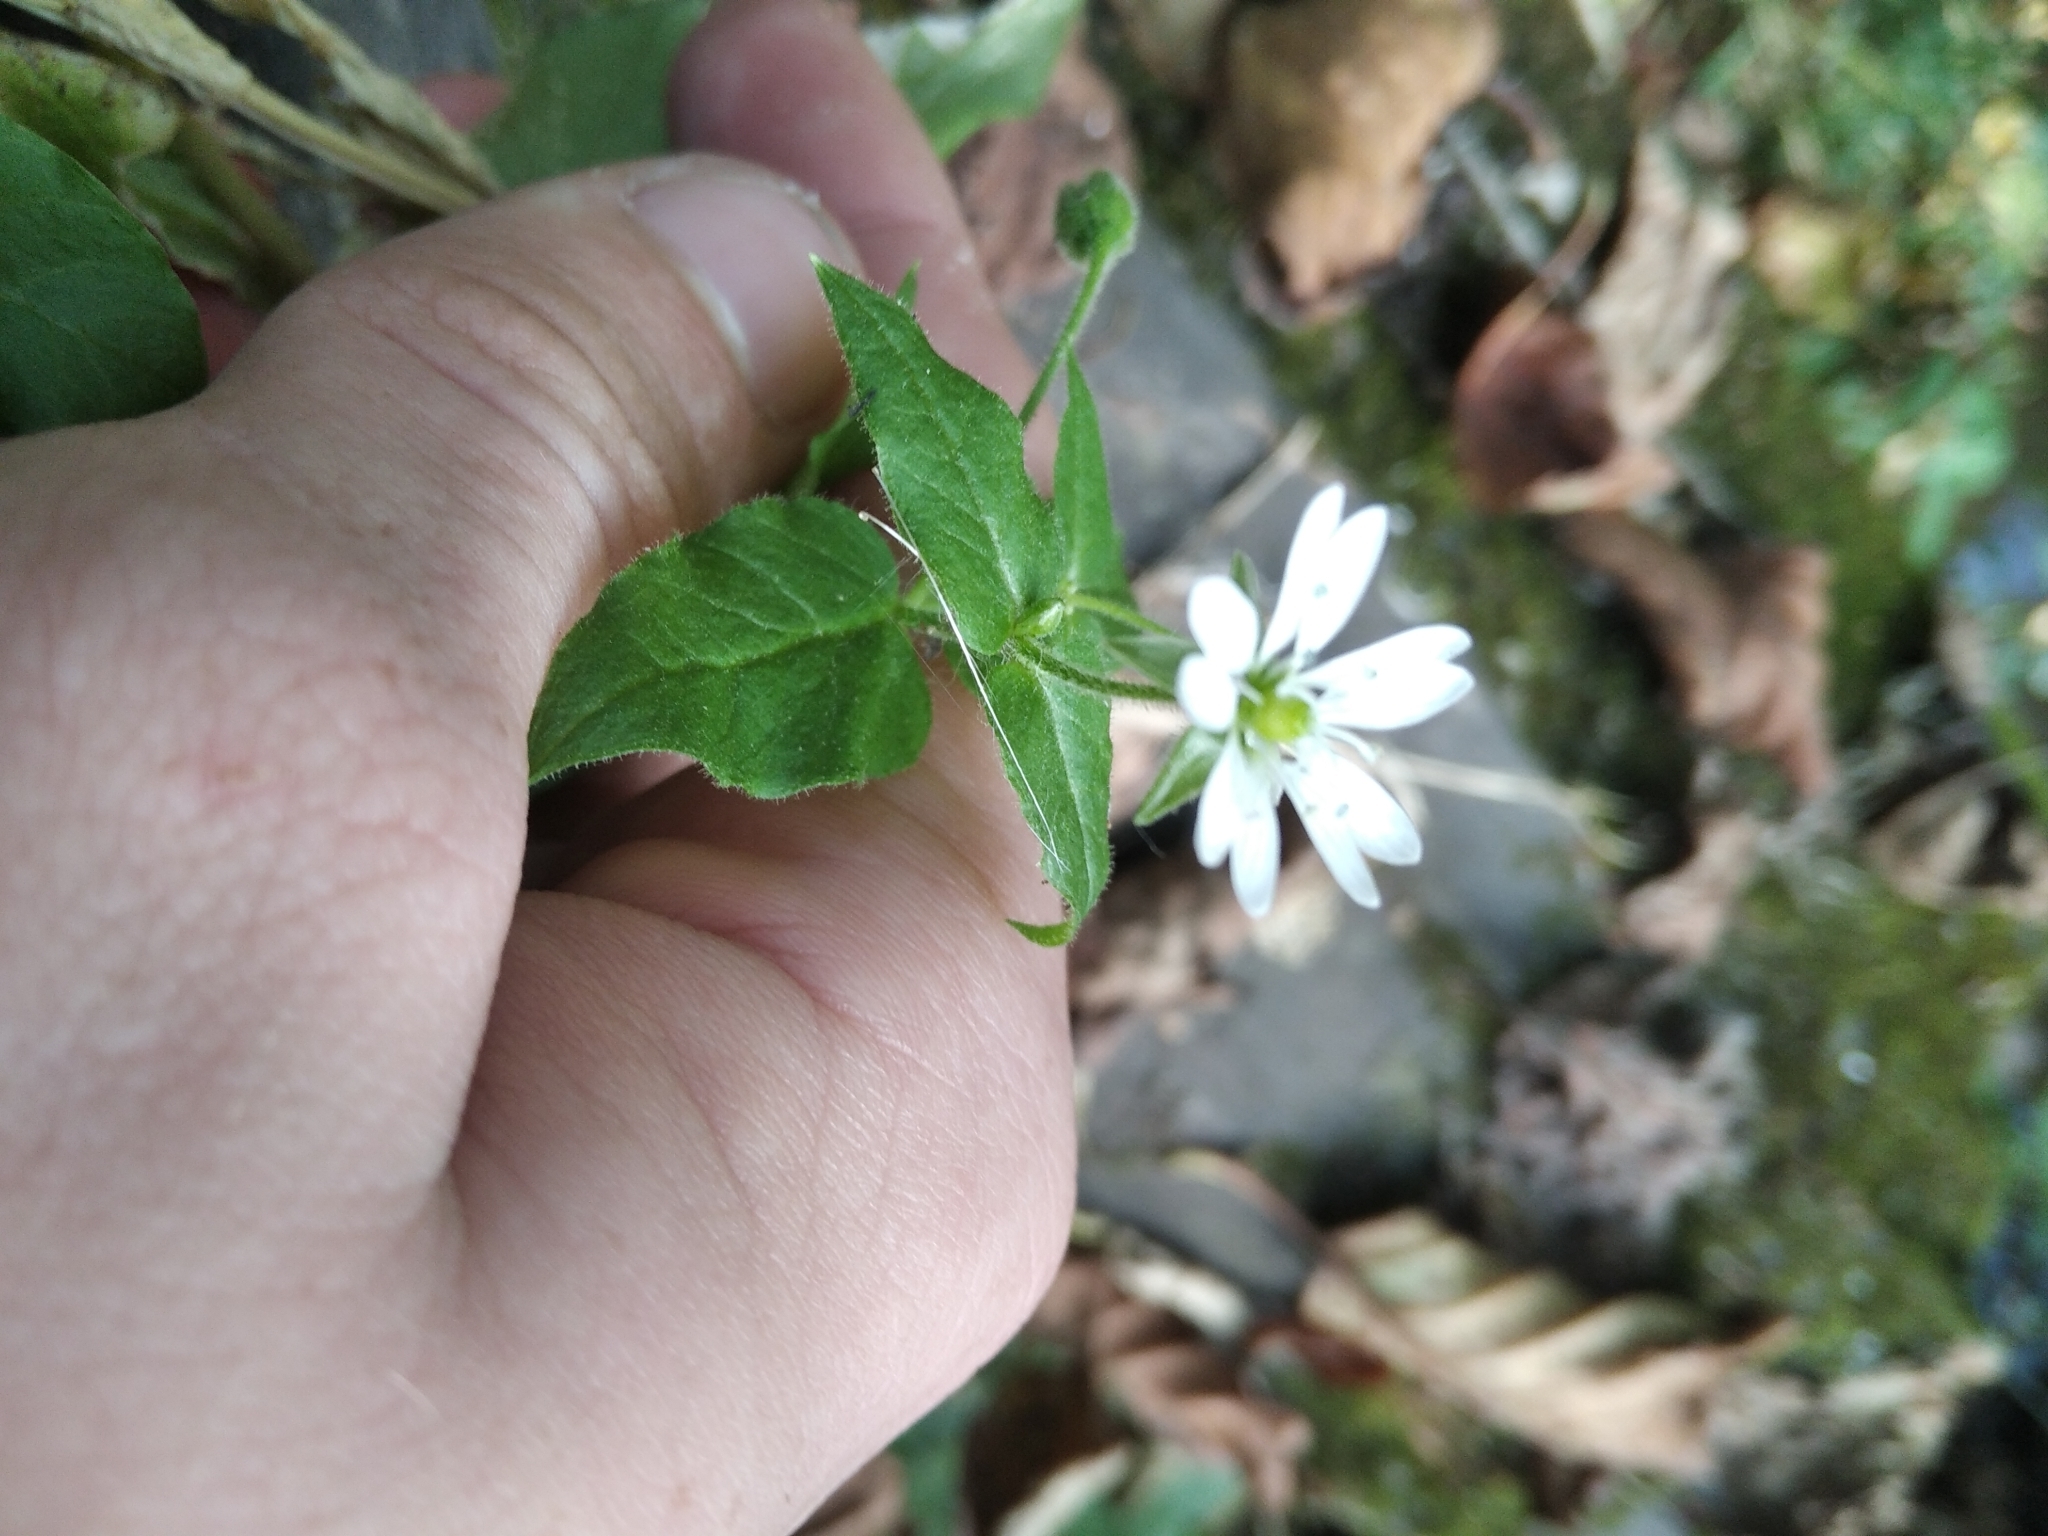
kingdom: Plantae
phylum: Tracheophyta
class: Magnoliopsida
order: Caryophyllales
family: Caryophyllaceae
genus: Stellaria
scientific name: Stellaria aquatica
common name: Water chickweed
